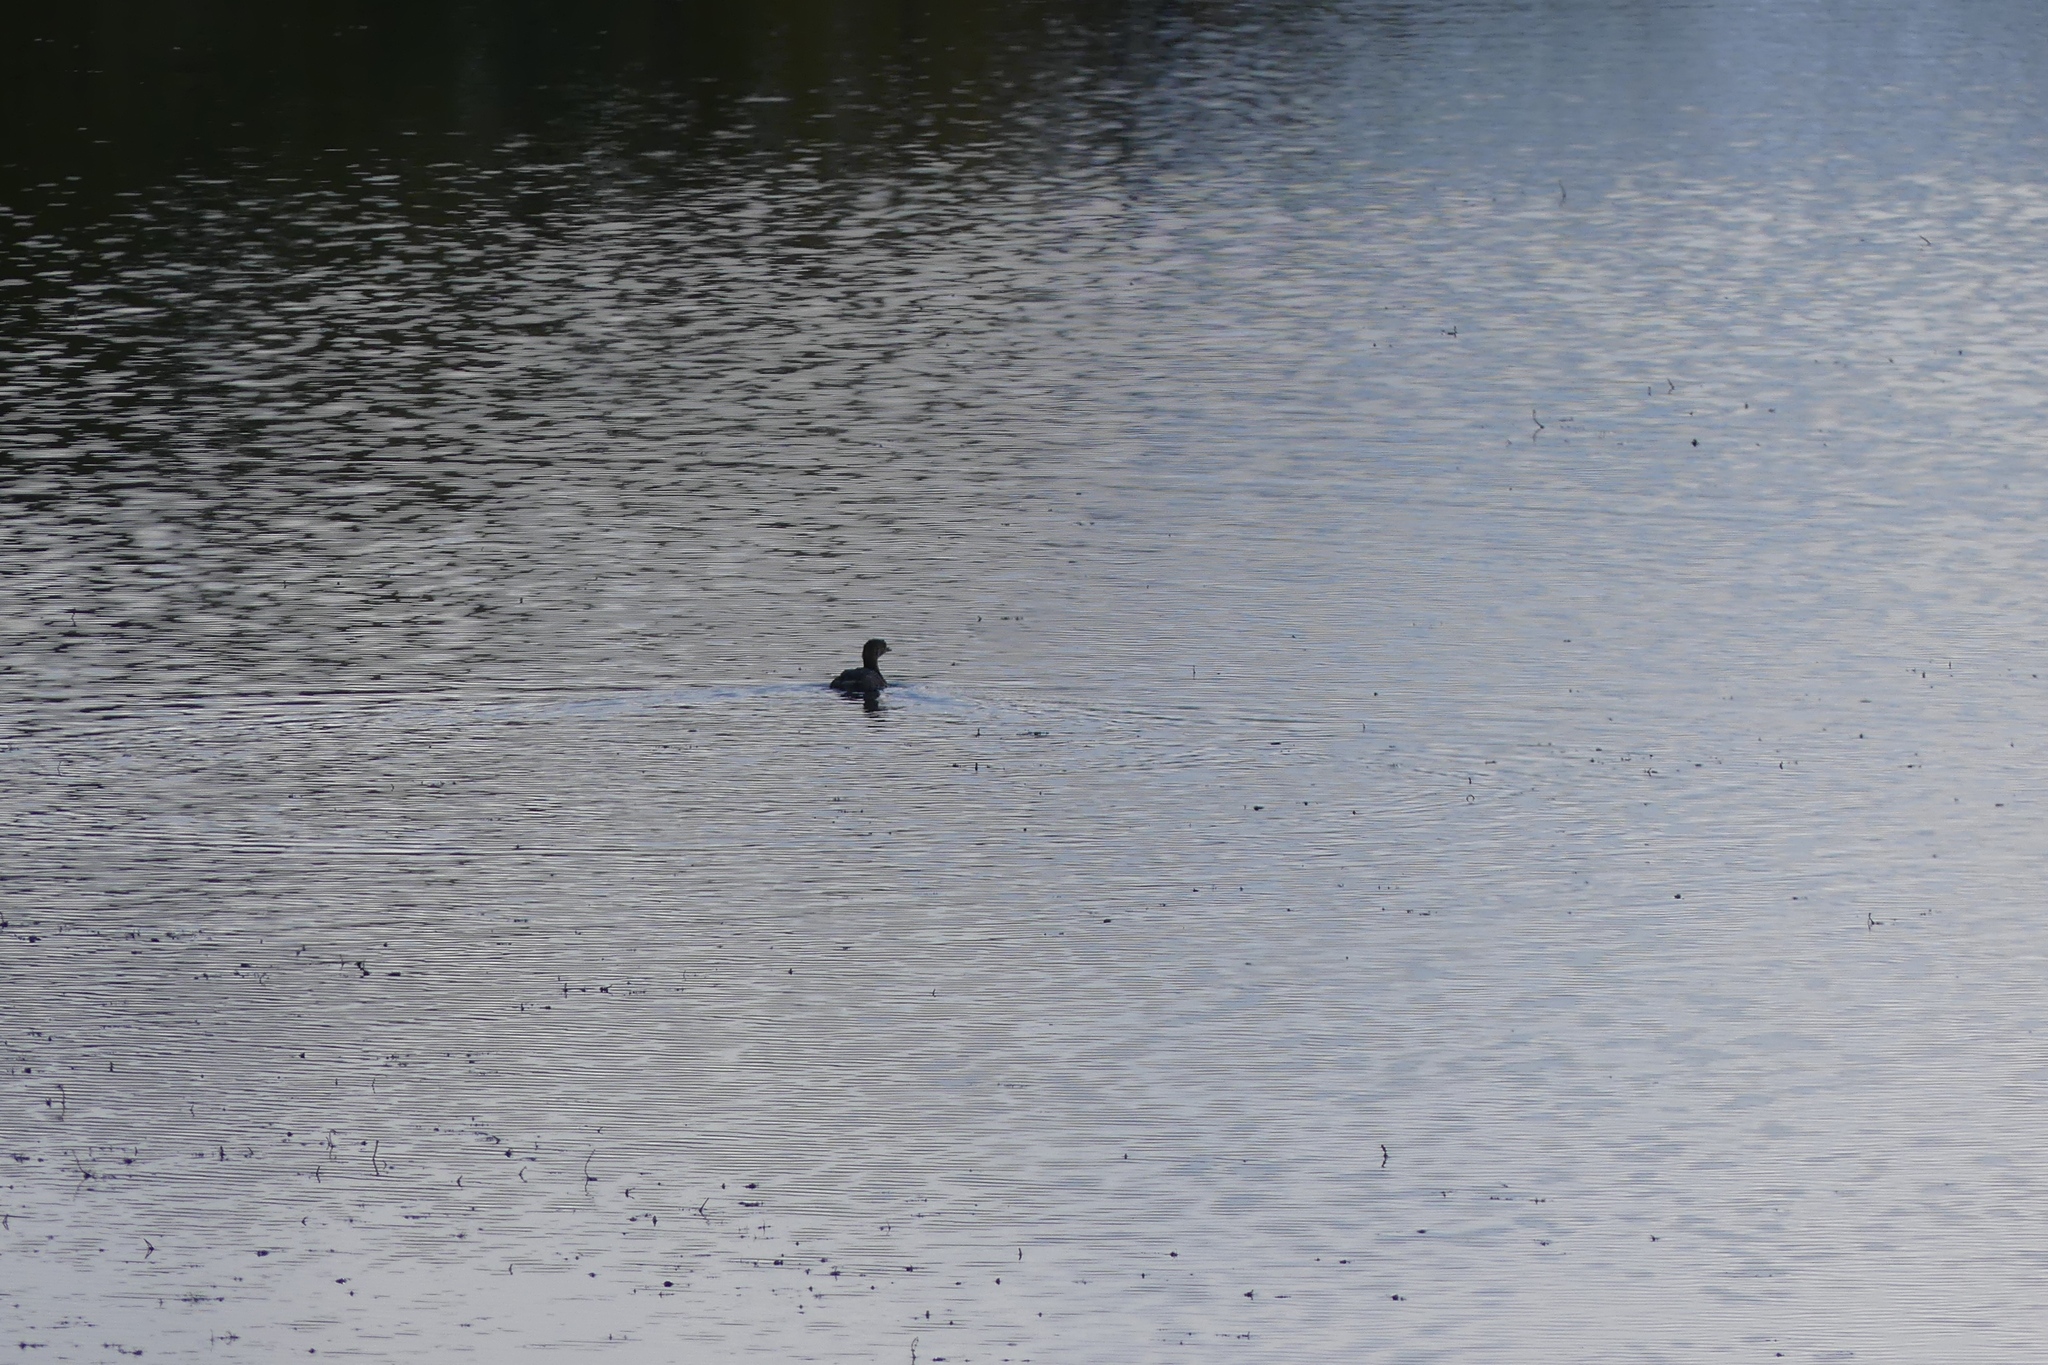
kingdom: Animalia
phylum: Chordata
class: Aves
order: Podicipediformes
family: Podicipedidae
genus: Podilymbus
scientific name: Podilymbus podiceps
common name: Pied-billed grebe
